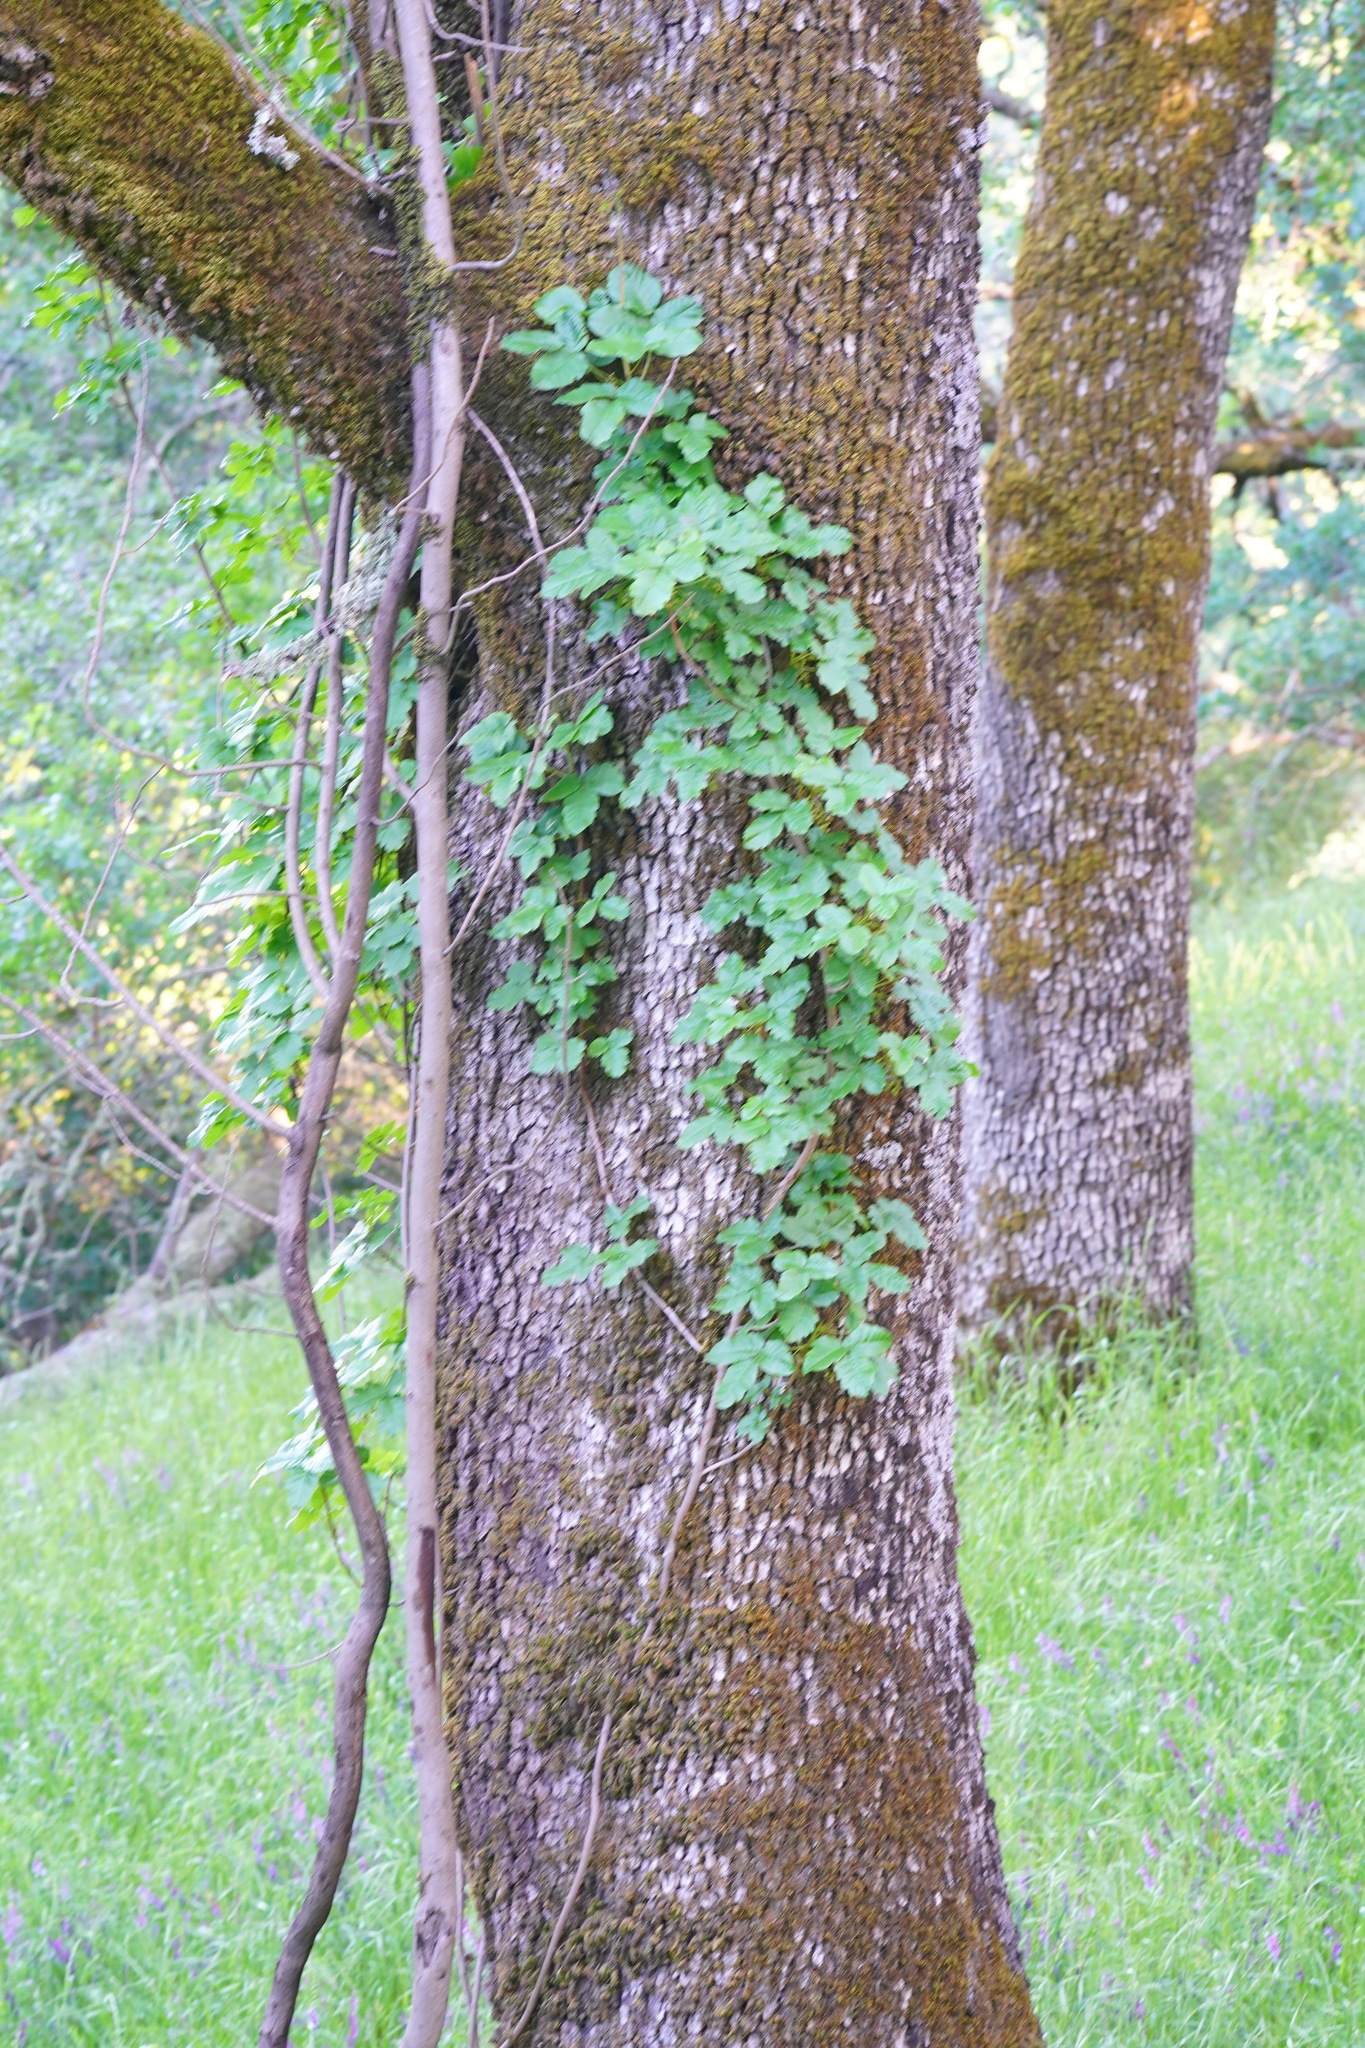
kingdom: Plantae
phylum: Tracheophyta
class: Magnoliopsida
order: Sapindales
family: Anacardiaceae
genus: Toxicodendron
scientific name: Toxicodendron diversilobum
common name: Pacific poison-oak
